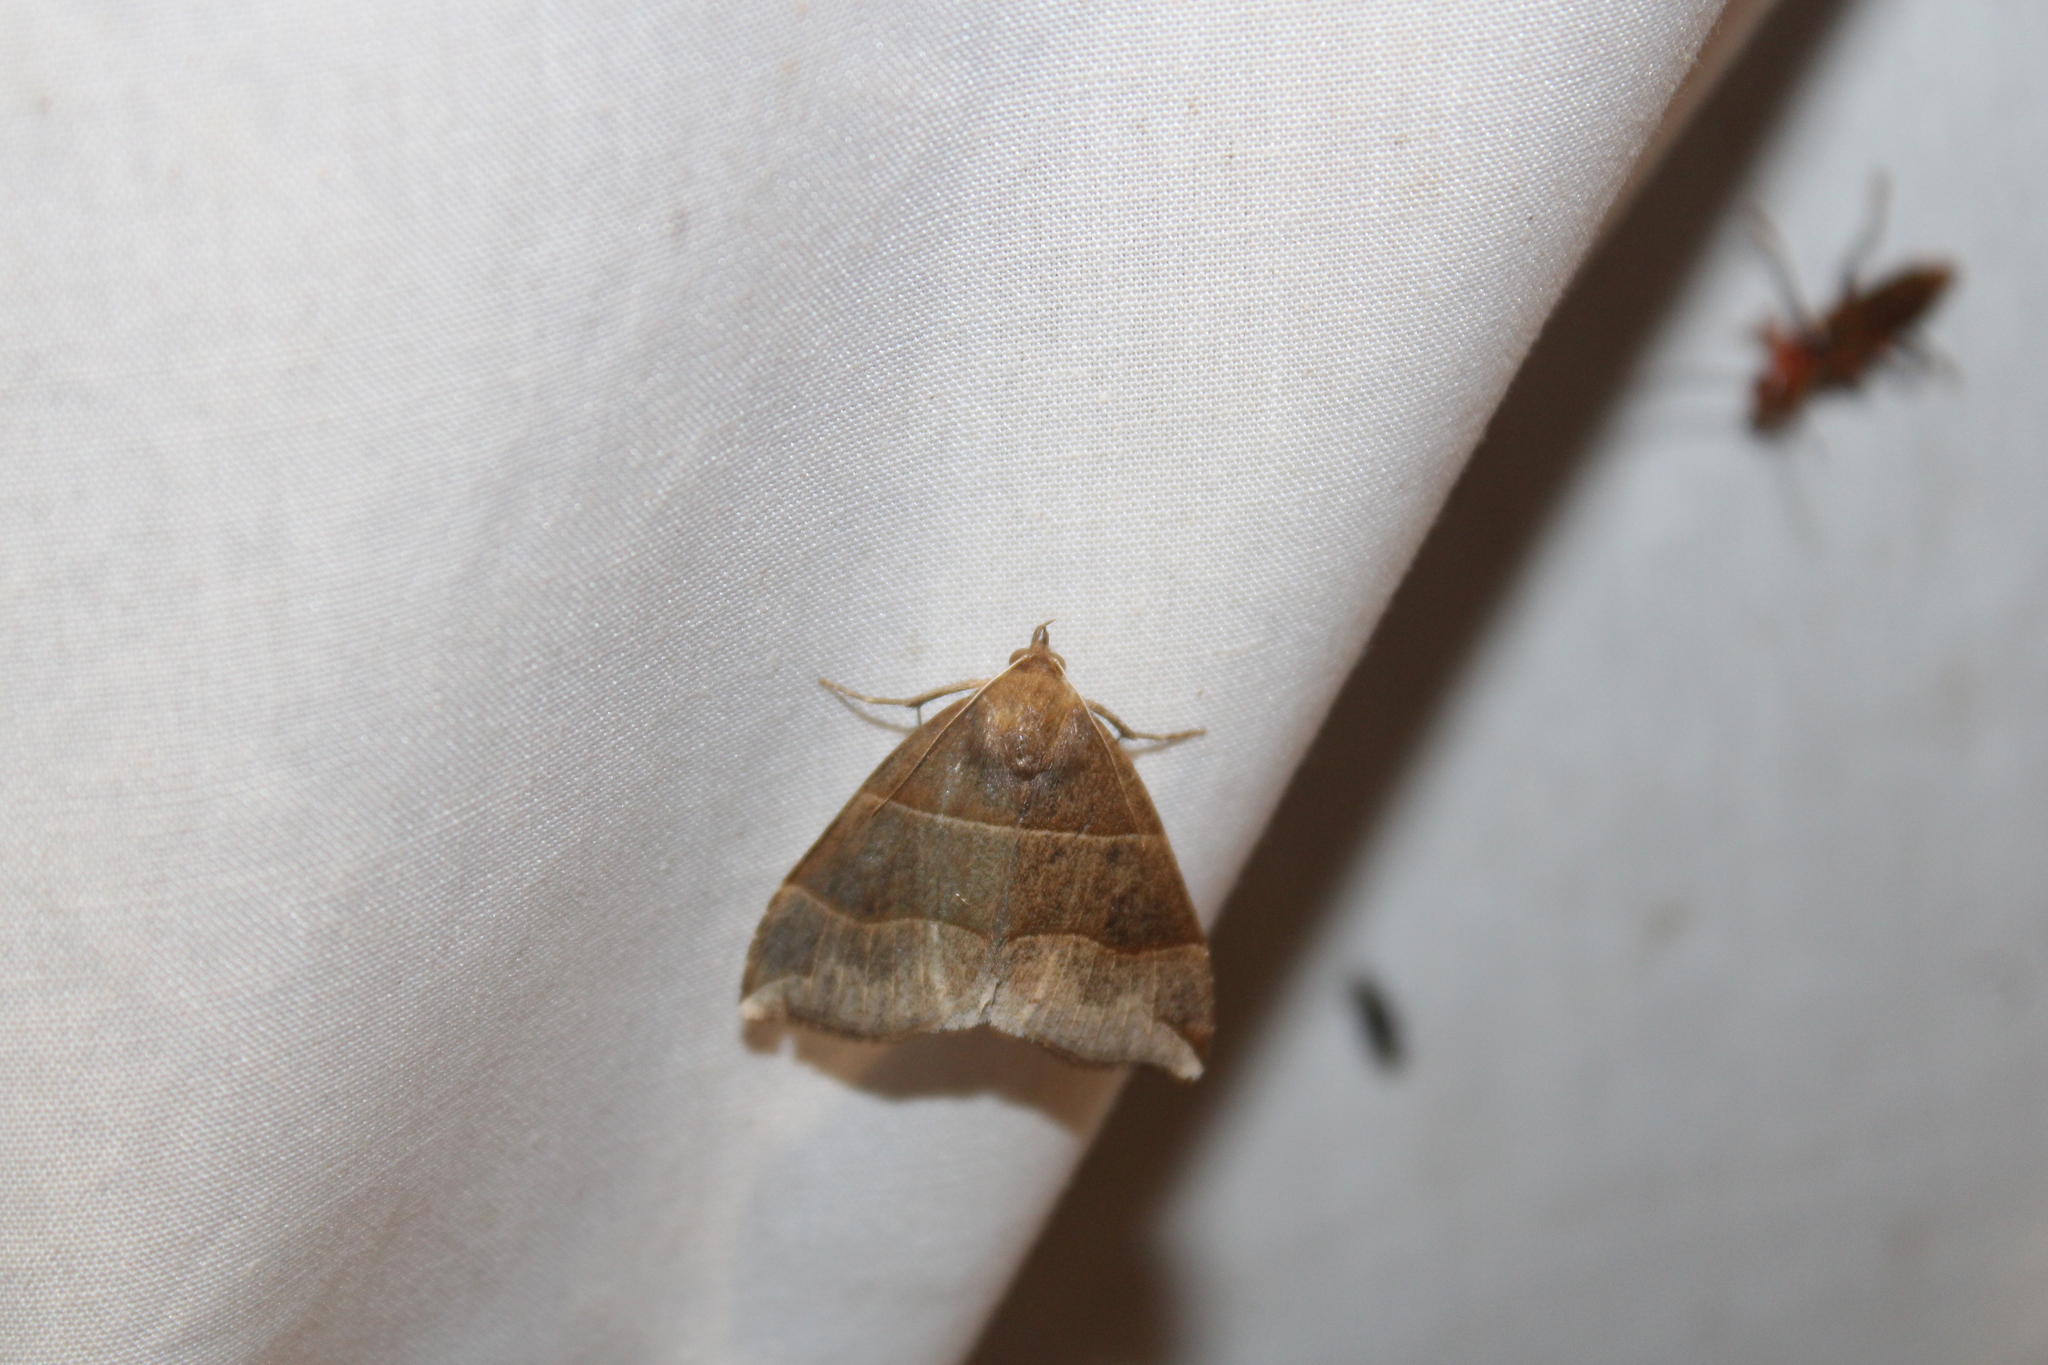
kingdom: Animalia
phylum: Arthropoda
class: Insecta
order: Lepidoptera
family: Erebidae
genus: Parallelia
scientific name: Parallelia bistriaris
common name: Maple looper moth
